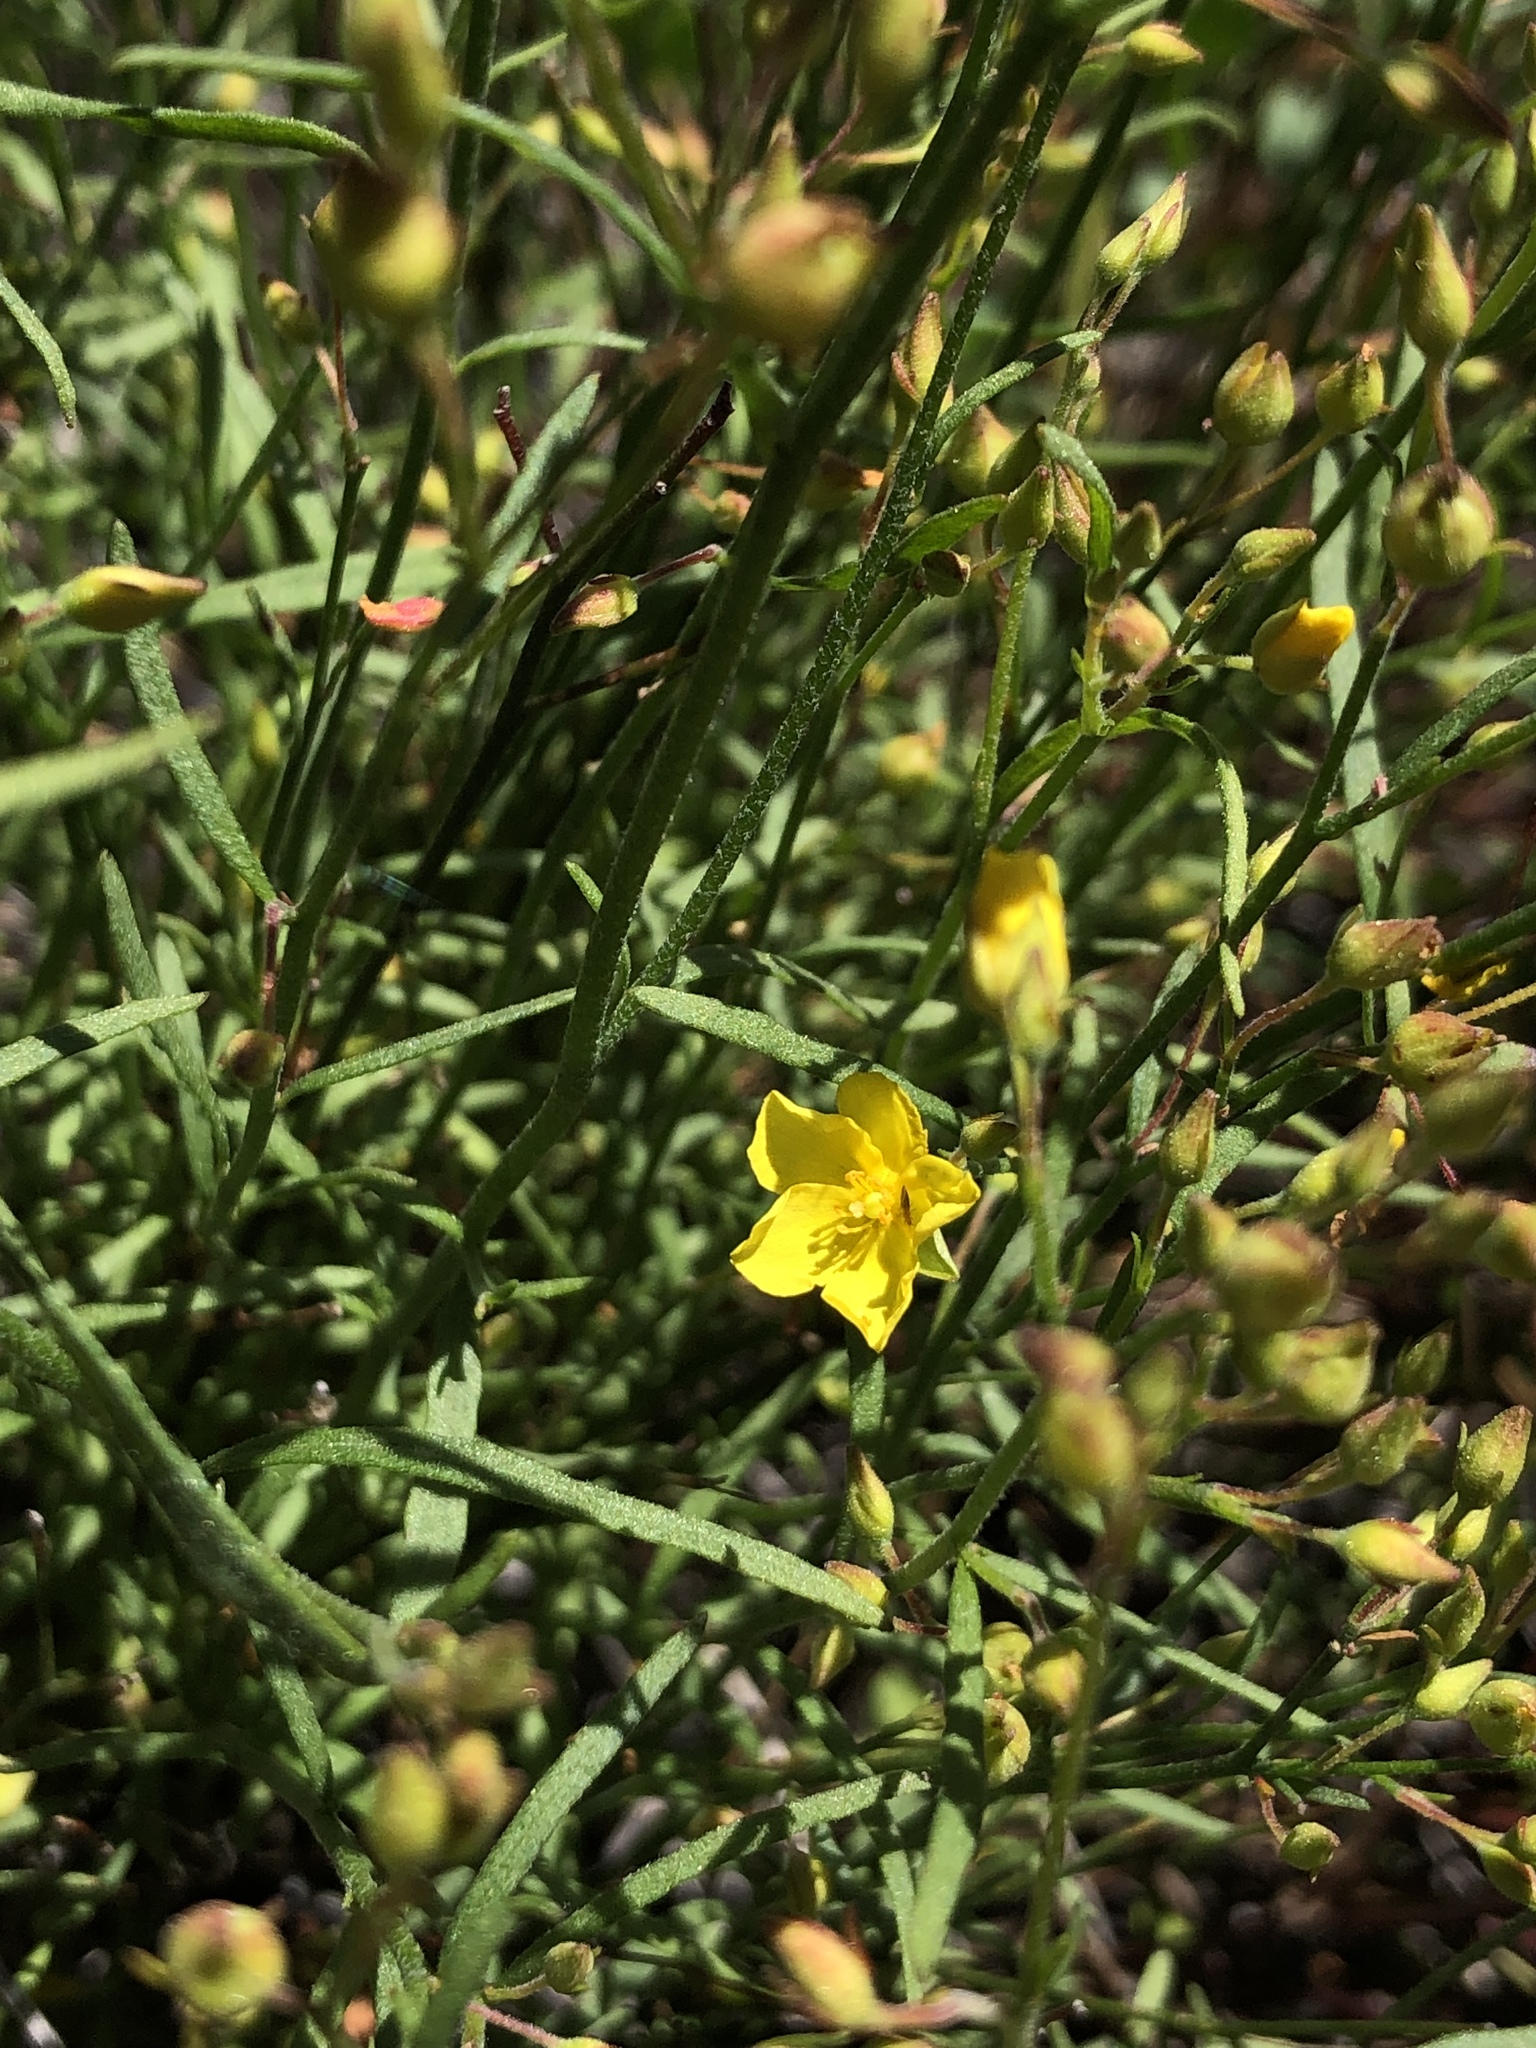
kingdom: Plantae
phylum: Tracheophyta
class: Magnoliopsida
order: Malvales
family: Cistaceae
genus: Crocanthemum
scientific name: Crocanthemum scoparium
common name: Broom-rose
